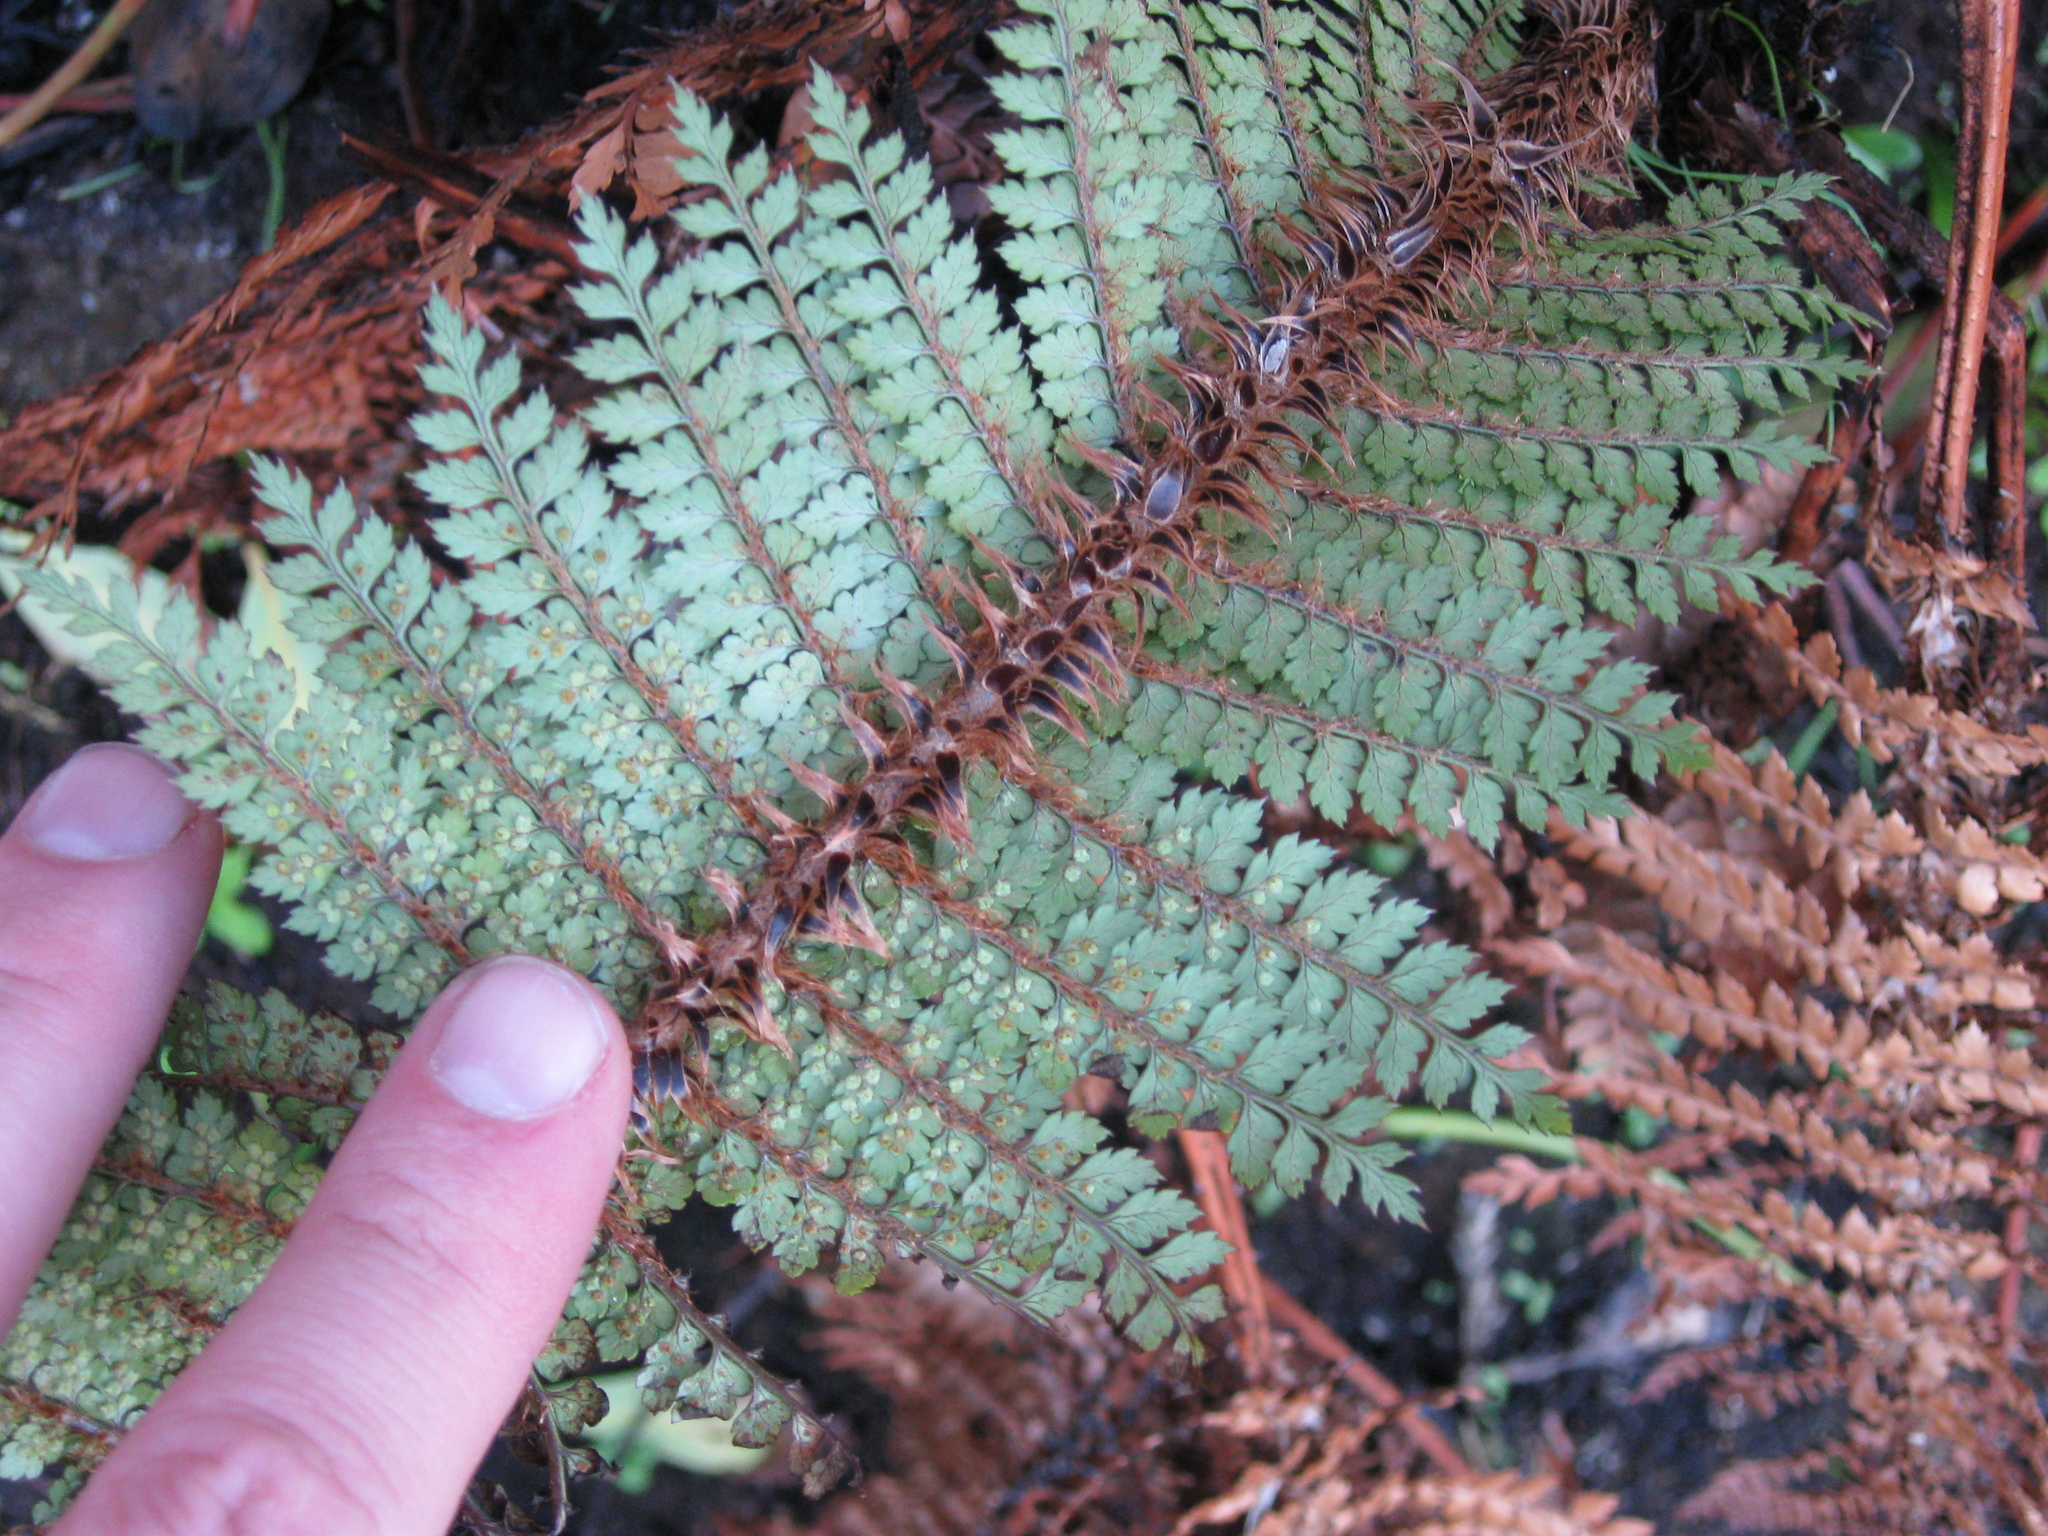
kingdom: Plantae
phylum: Tracheophyta
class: Polypodiopsida
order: Polypodiales
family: Dryopteridaceae
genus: Polystichum
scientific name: Polystichum vestitum
